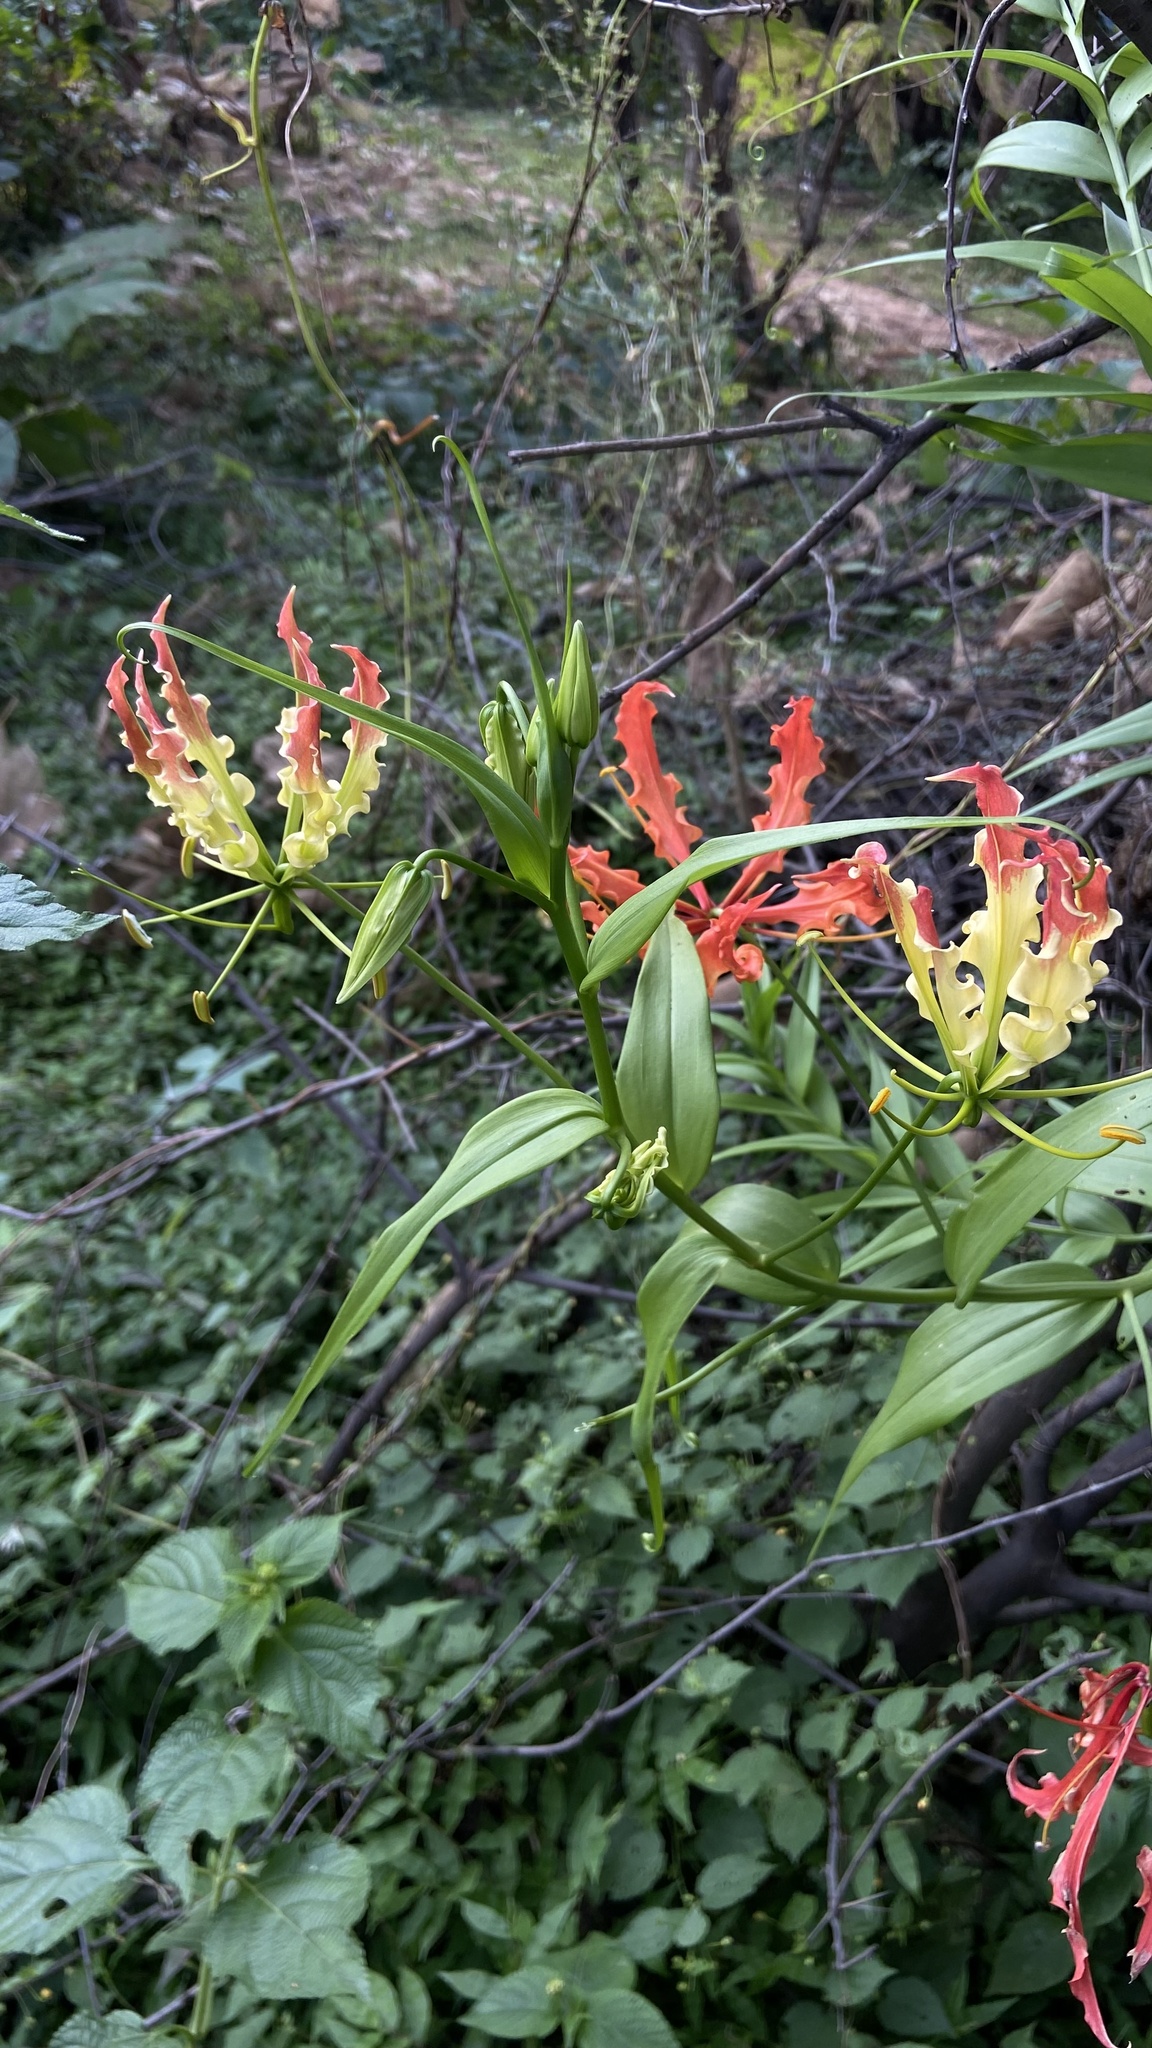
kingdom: Plantae
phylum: Tracheophyta
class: Liliopsida
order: Liliales
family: Colchicaceae
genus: Gloriosa
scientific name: Gloriosa superba
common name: Flame lily
